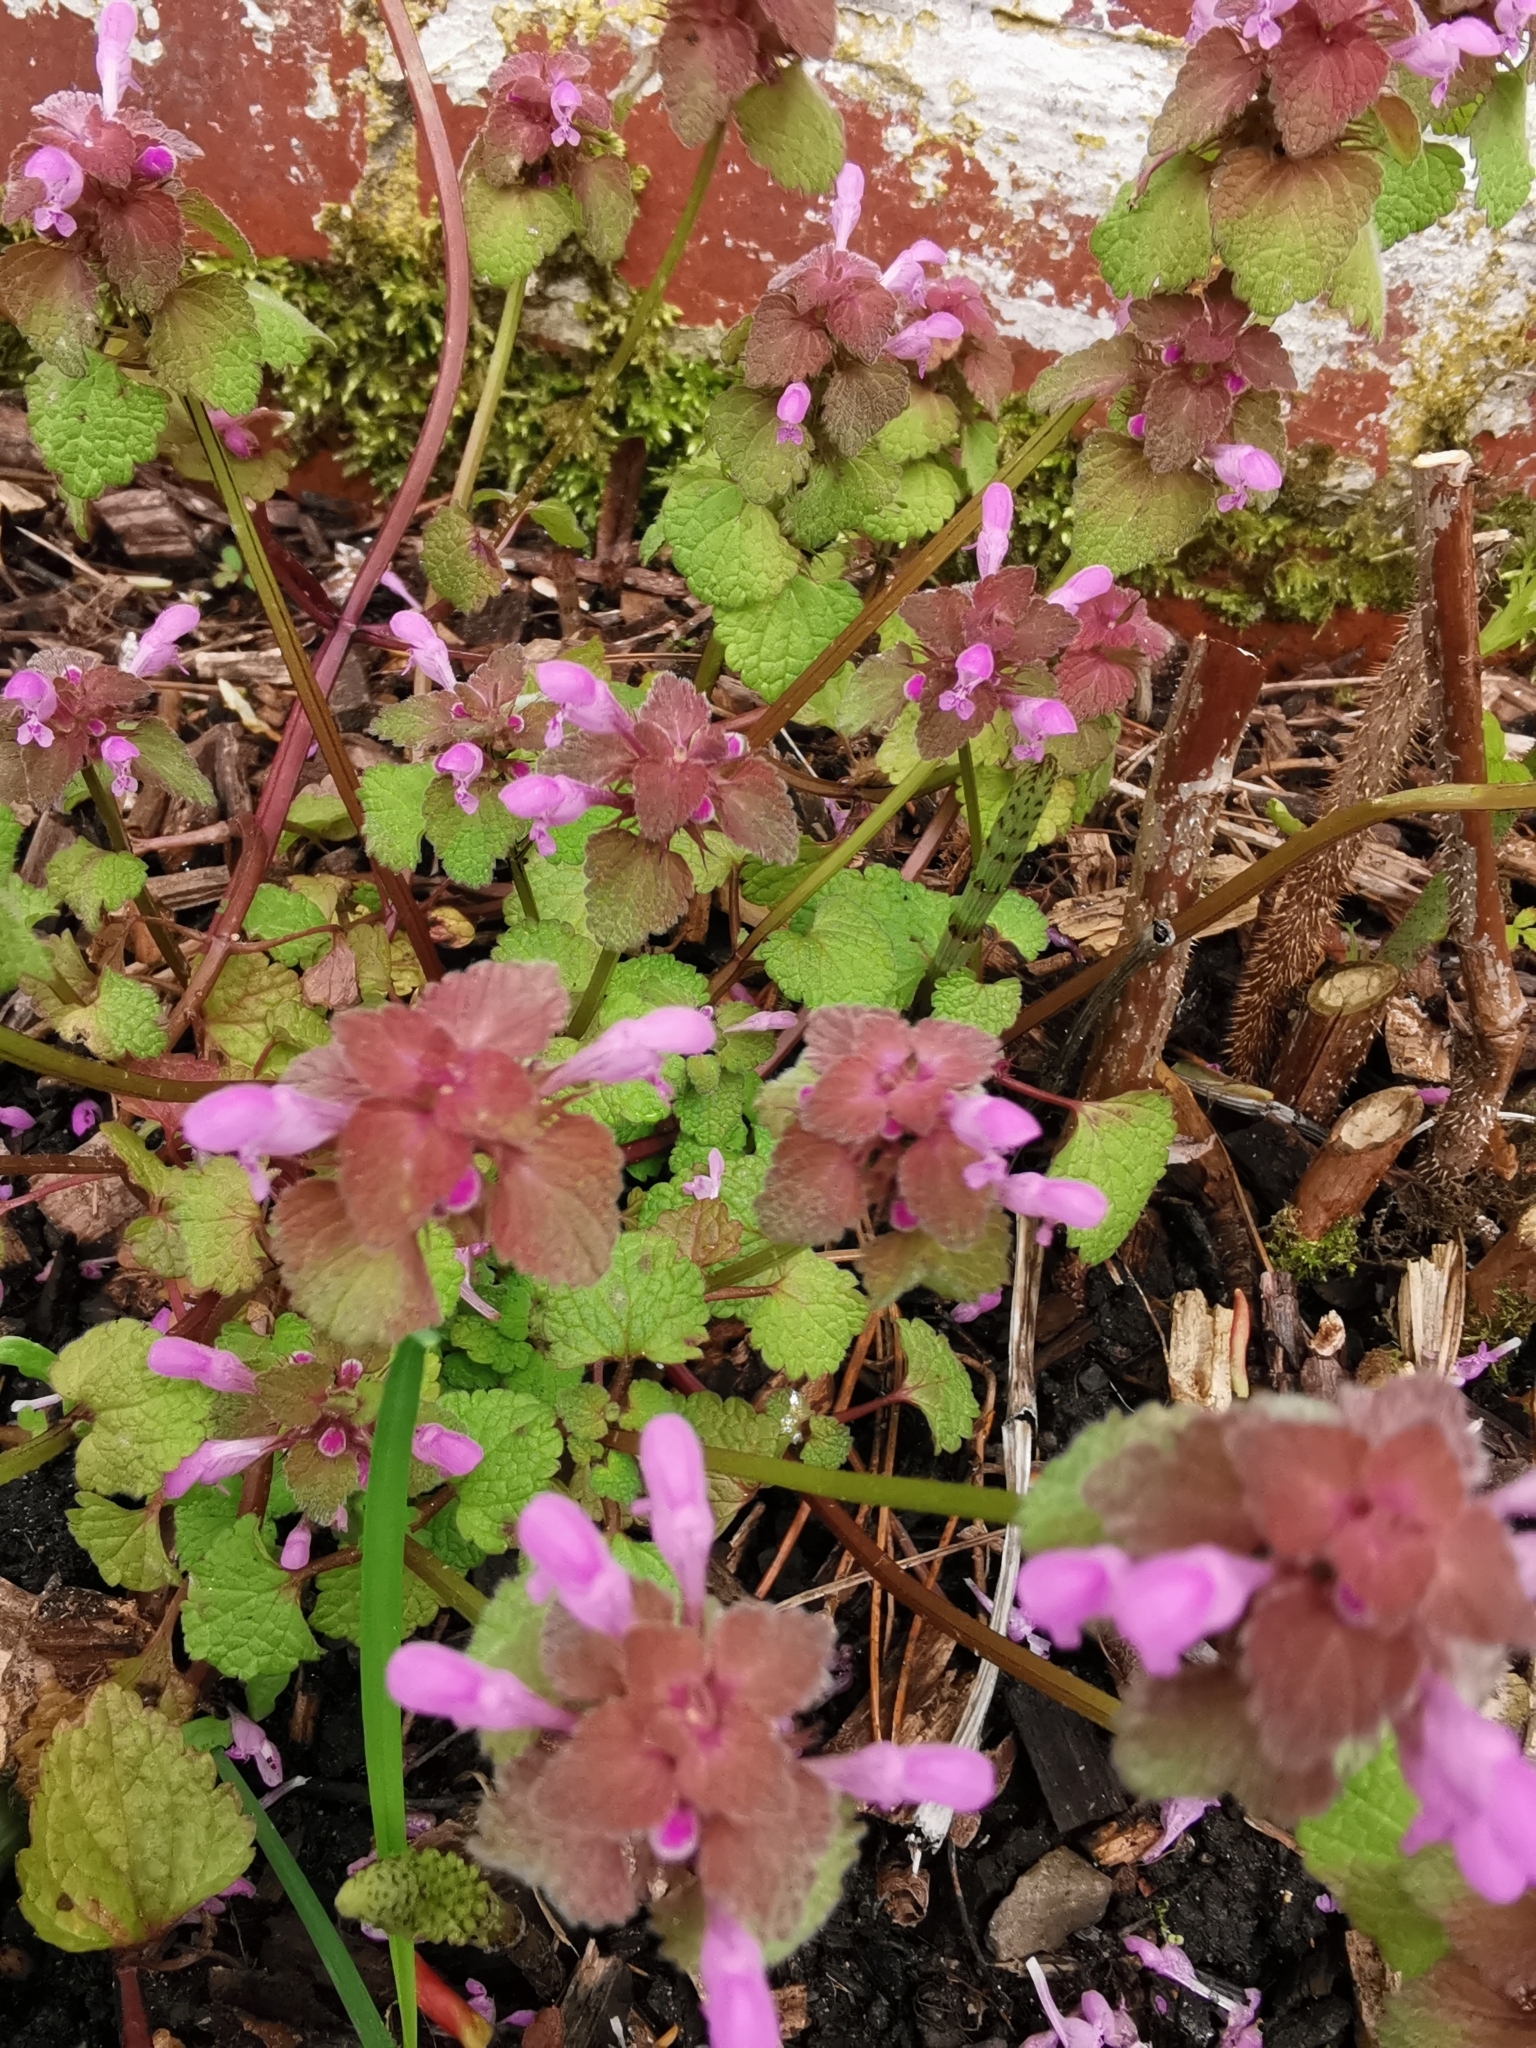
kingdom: Plantae
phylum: Tracheophyta
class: Magnoliopsida
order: Lamiales
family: Lamiaceae
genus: Lamium
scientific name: Lamium purpureum
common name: Red dead-nettle
